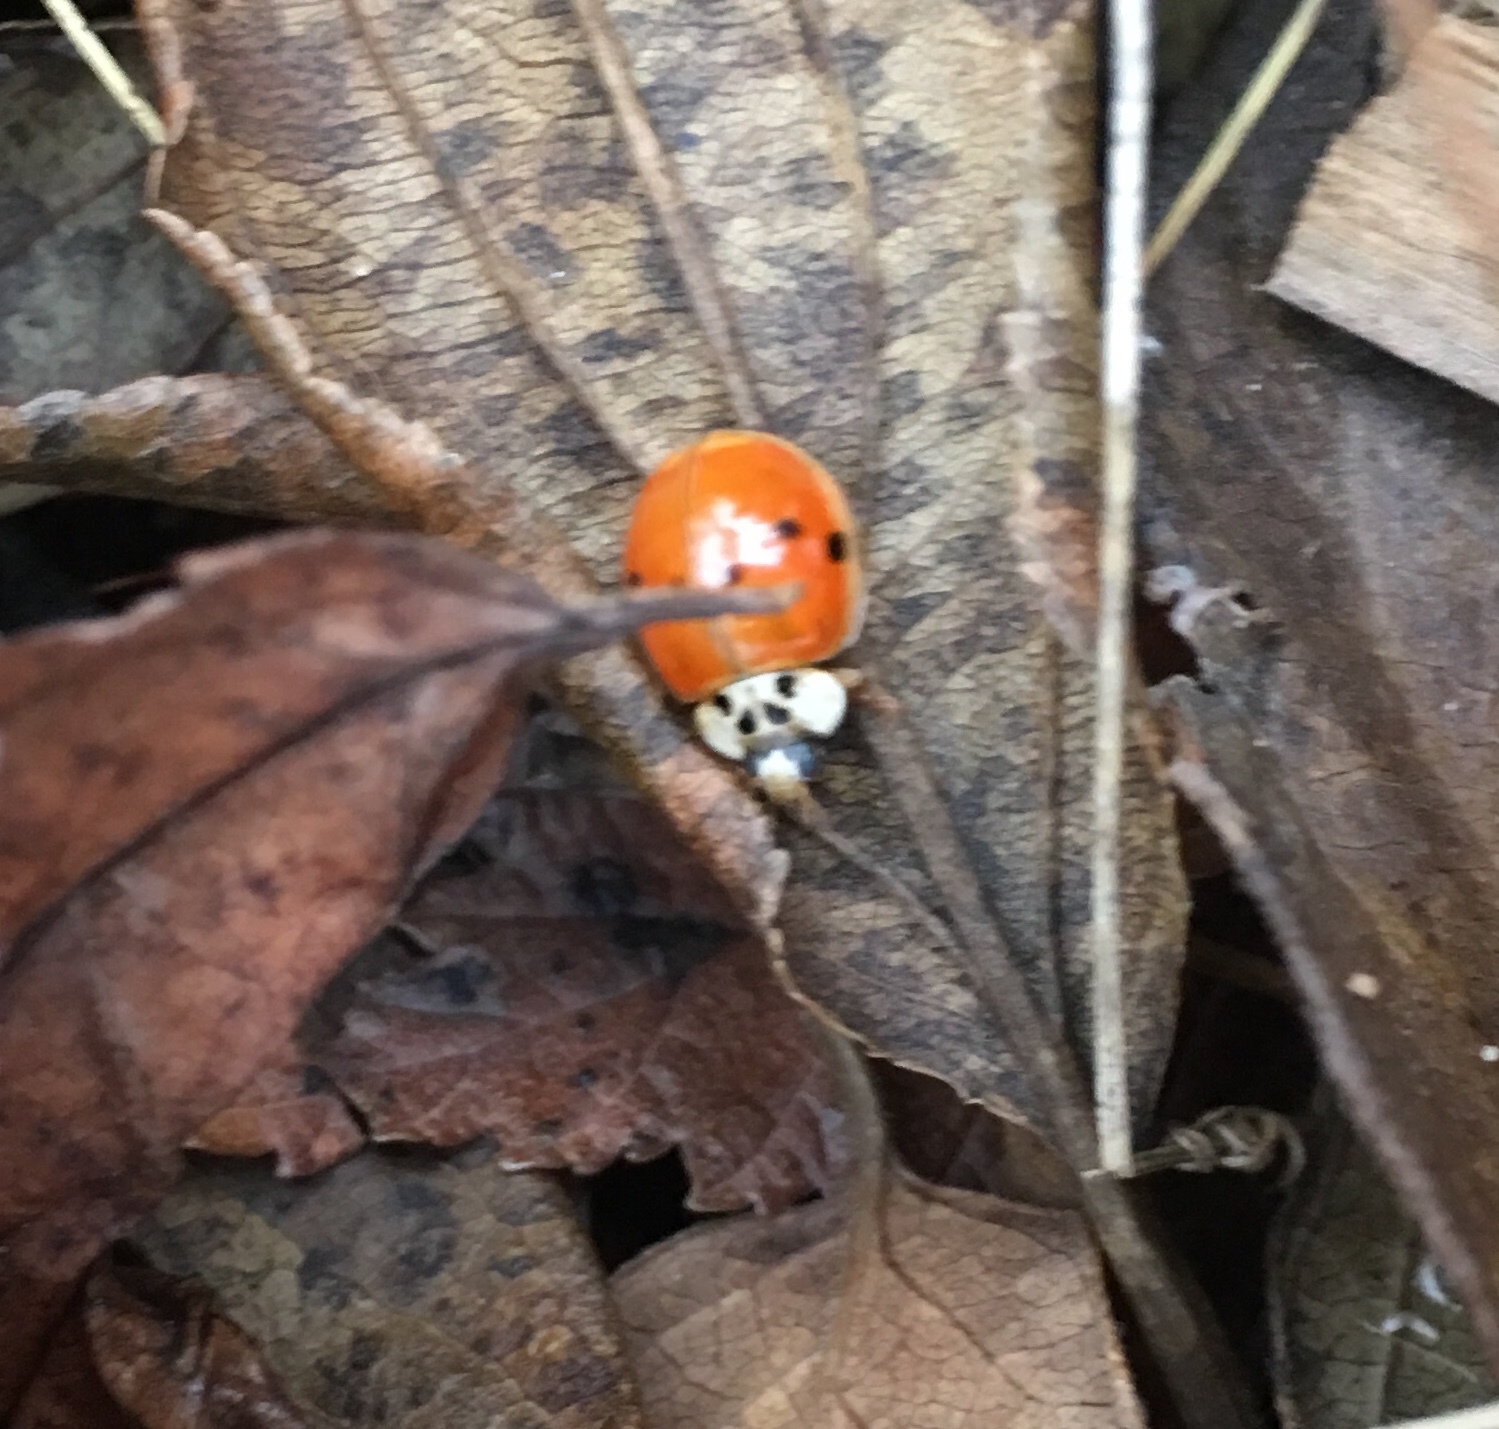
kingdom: Animalia
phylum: Arthropoda
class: Insecta
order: Coleoptera
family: Coccinellidae
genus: Harmonia
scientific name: Harmonia axyridis
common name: Harlequin ladybird
